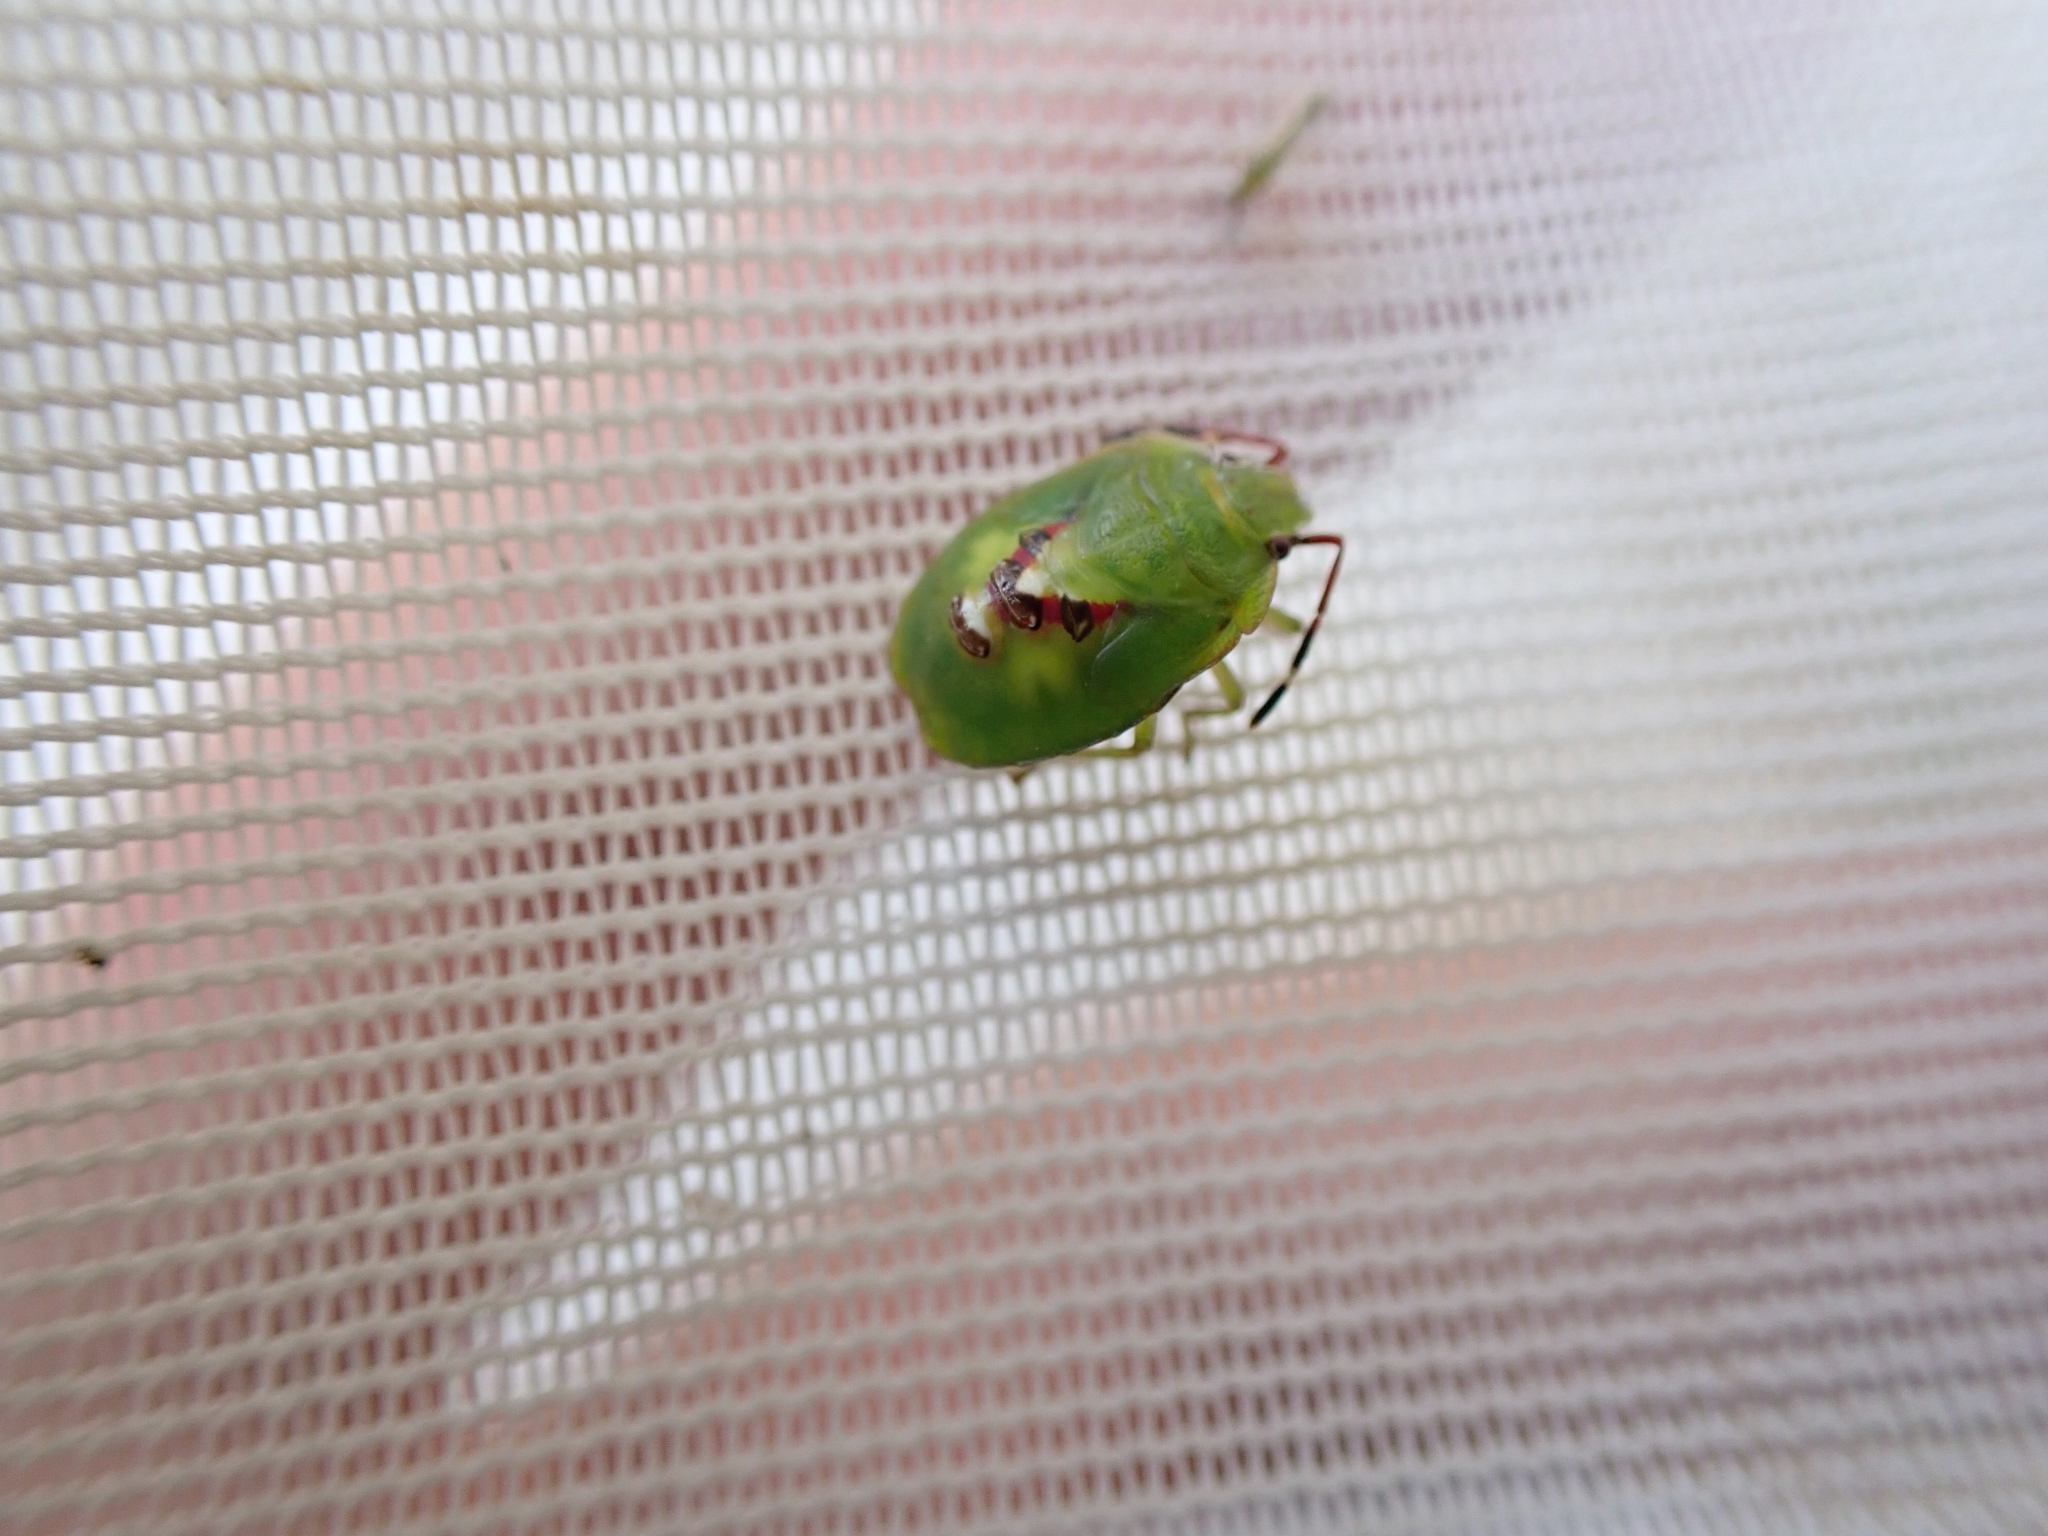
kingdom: Animalia
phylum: Arthropoda
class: Insecta
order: Hemiptera
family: Acanthosomatidae
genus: Oncacontias
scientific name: Oncacontias vittatus
